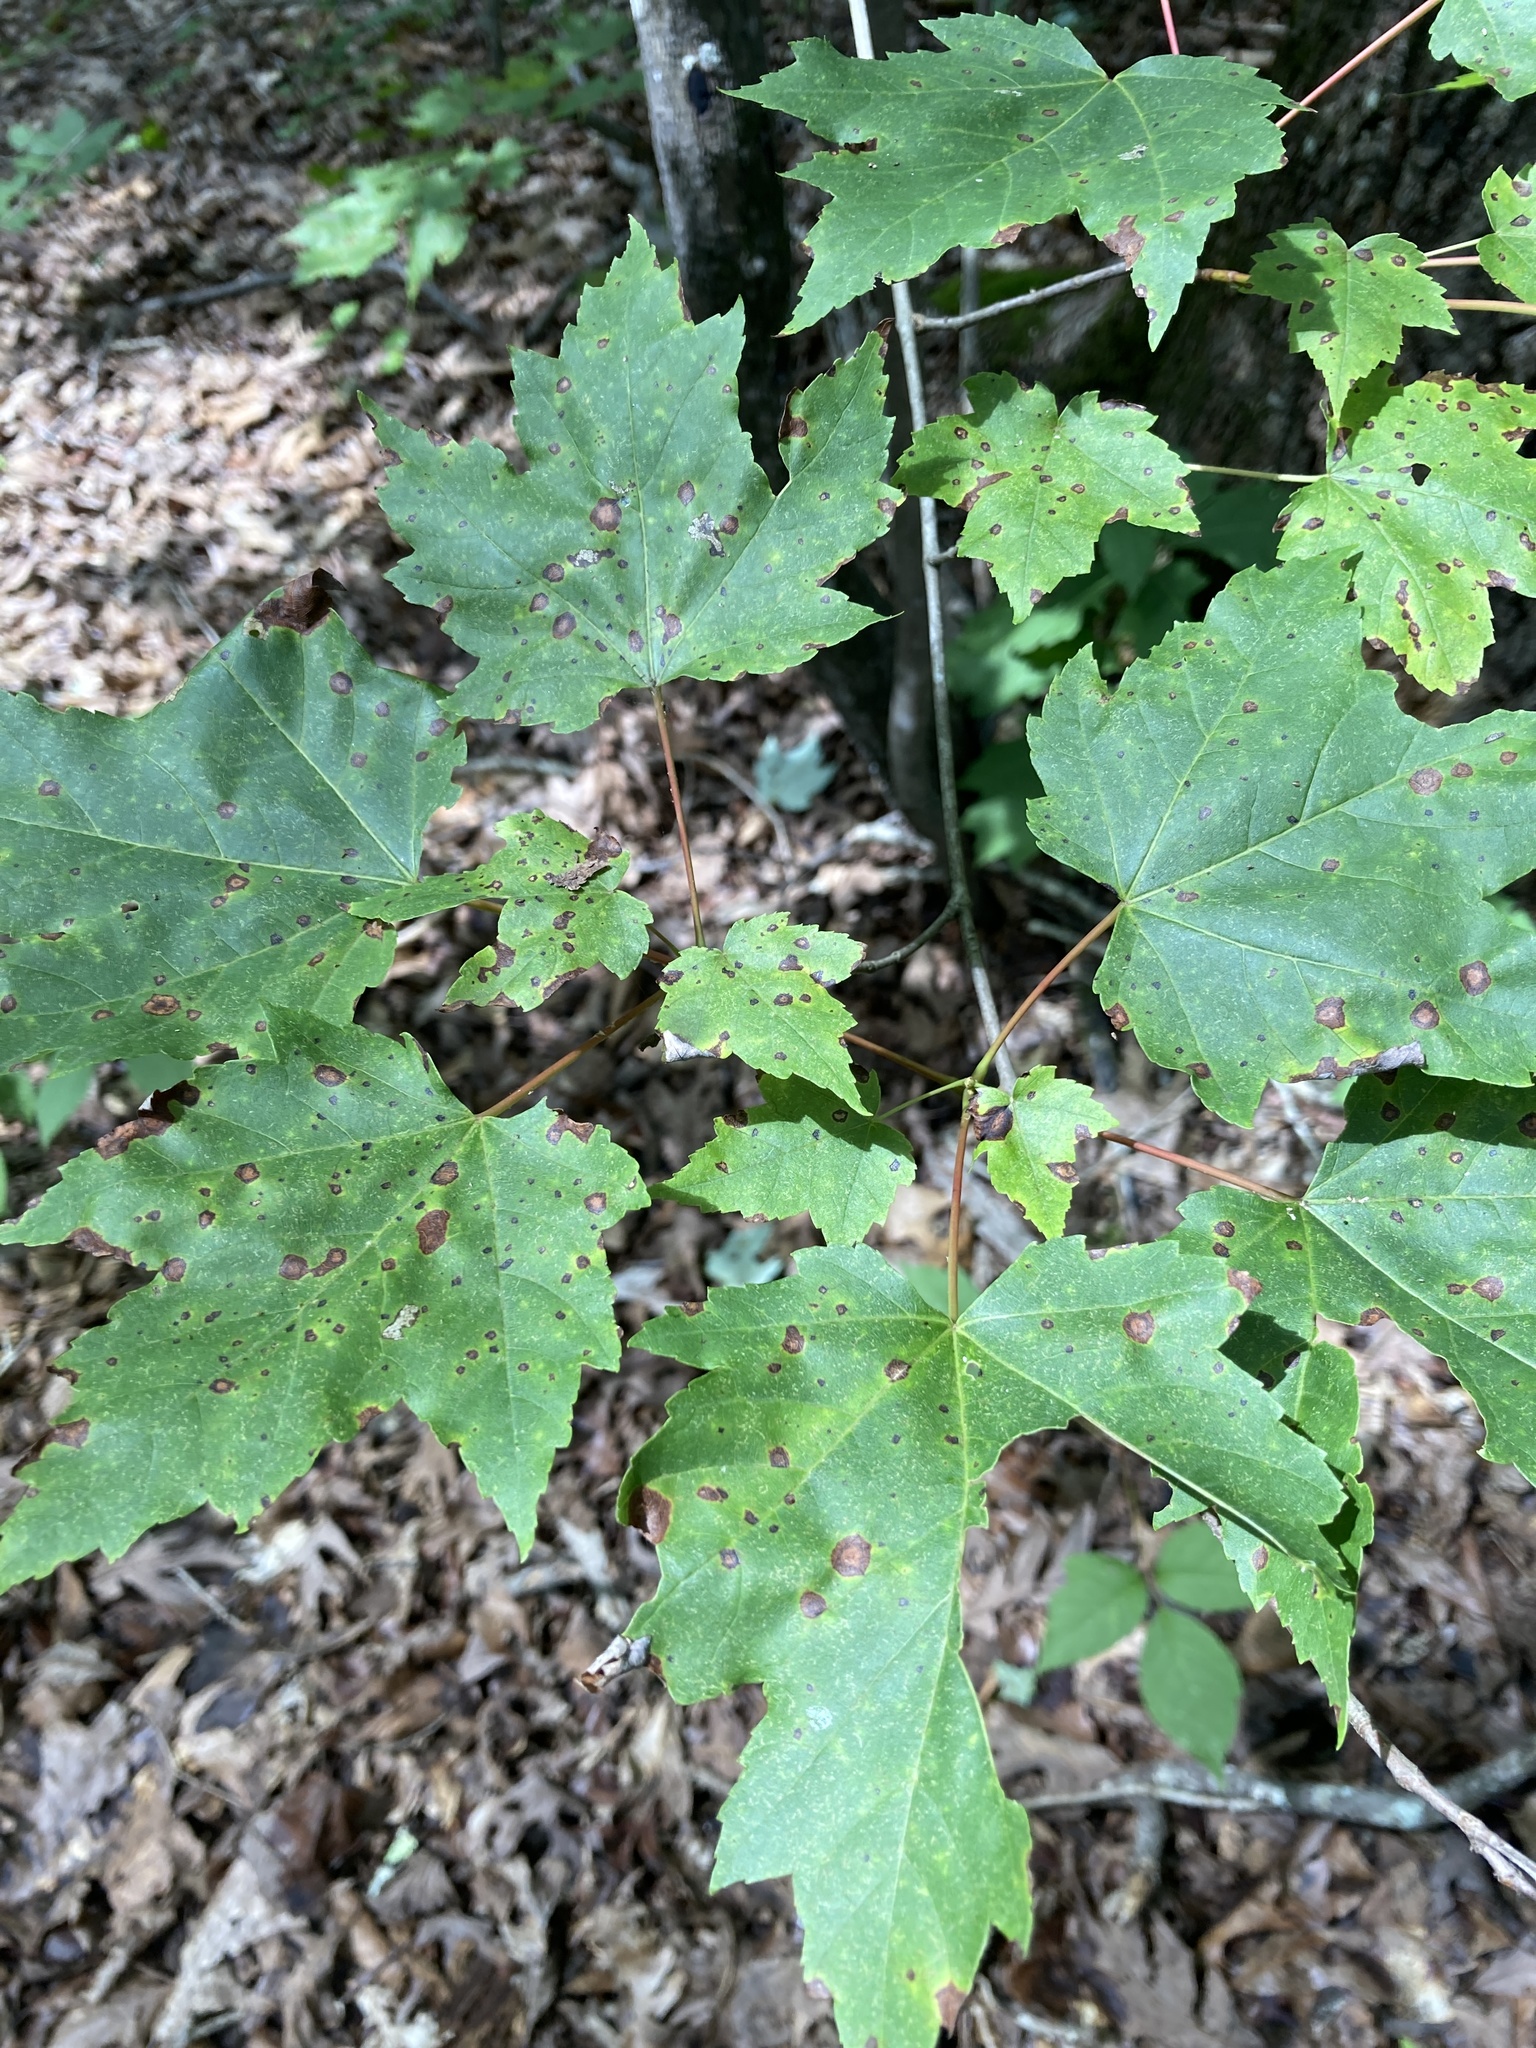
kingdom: Plantae
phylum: Tracheophyta
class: Magnoliopsida
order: Sapindales
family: Sapindaceae
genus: Acer
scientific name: Acer rubrum
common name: Red maple
